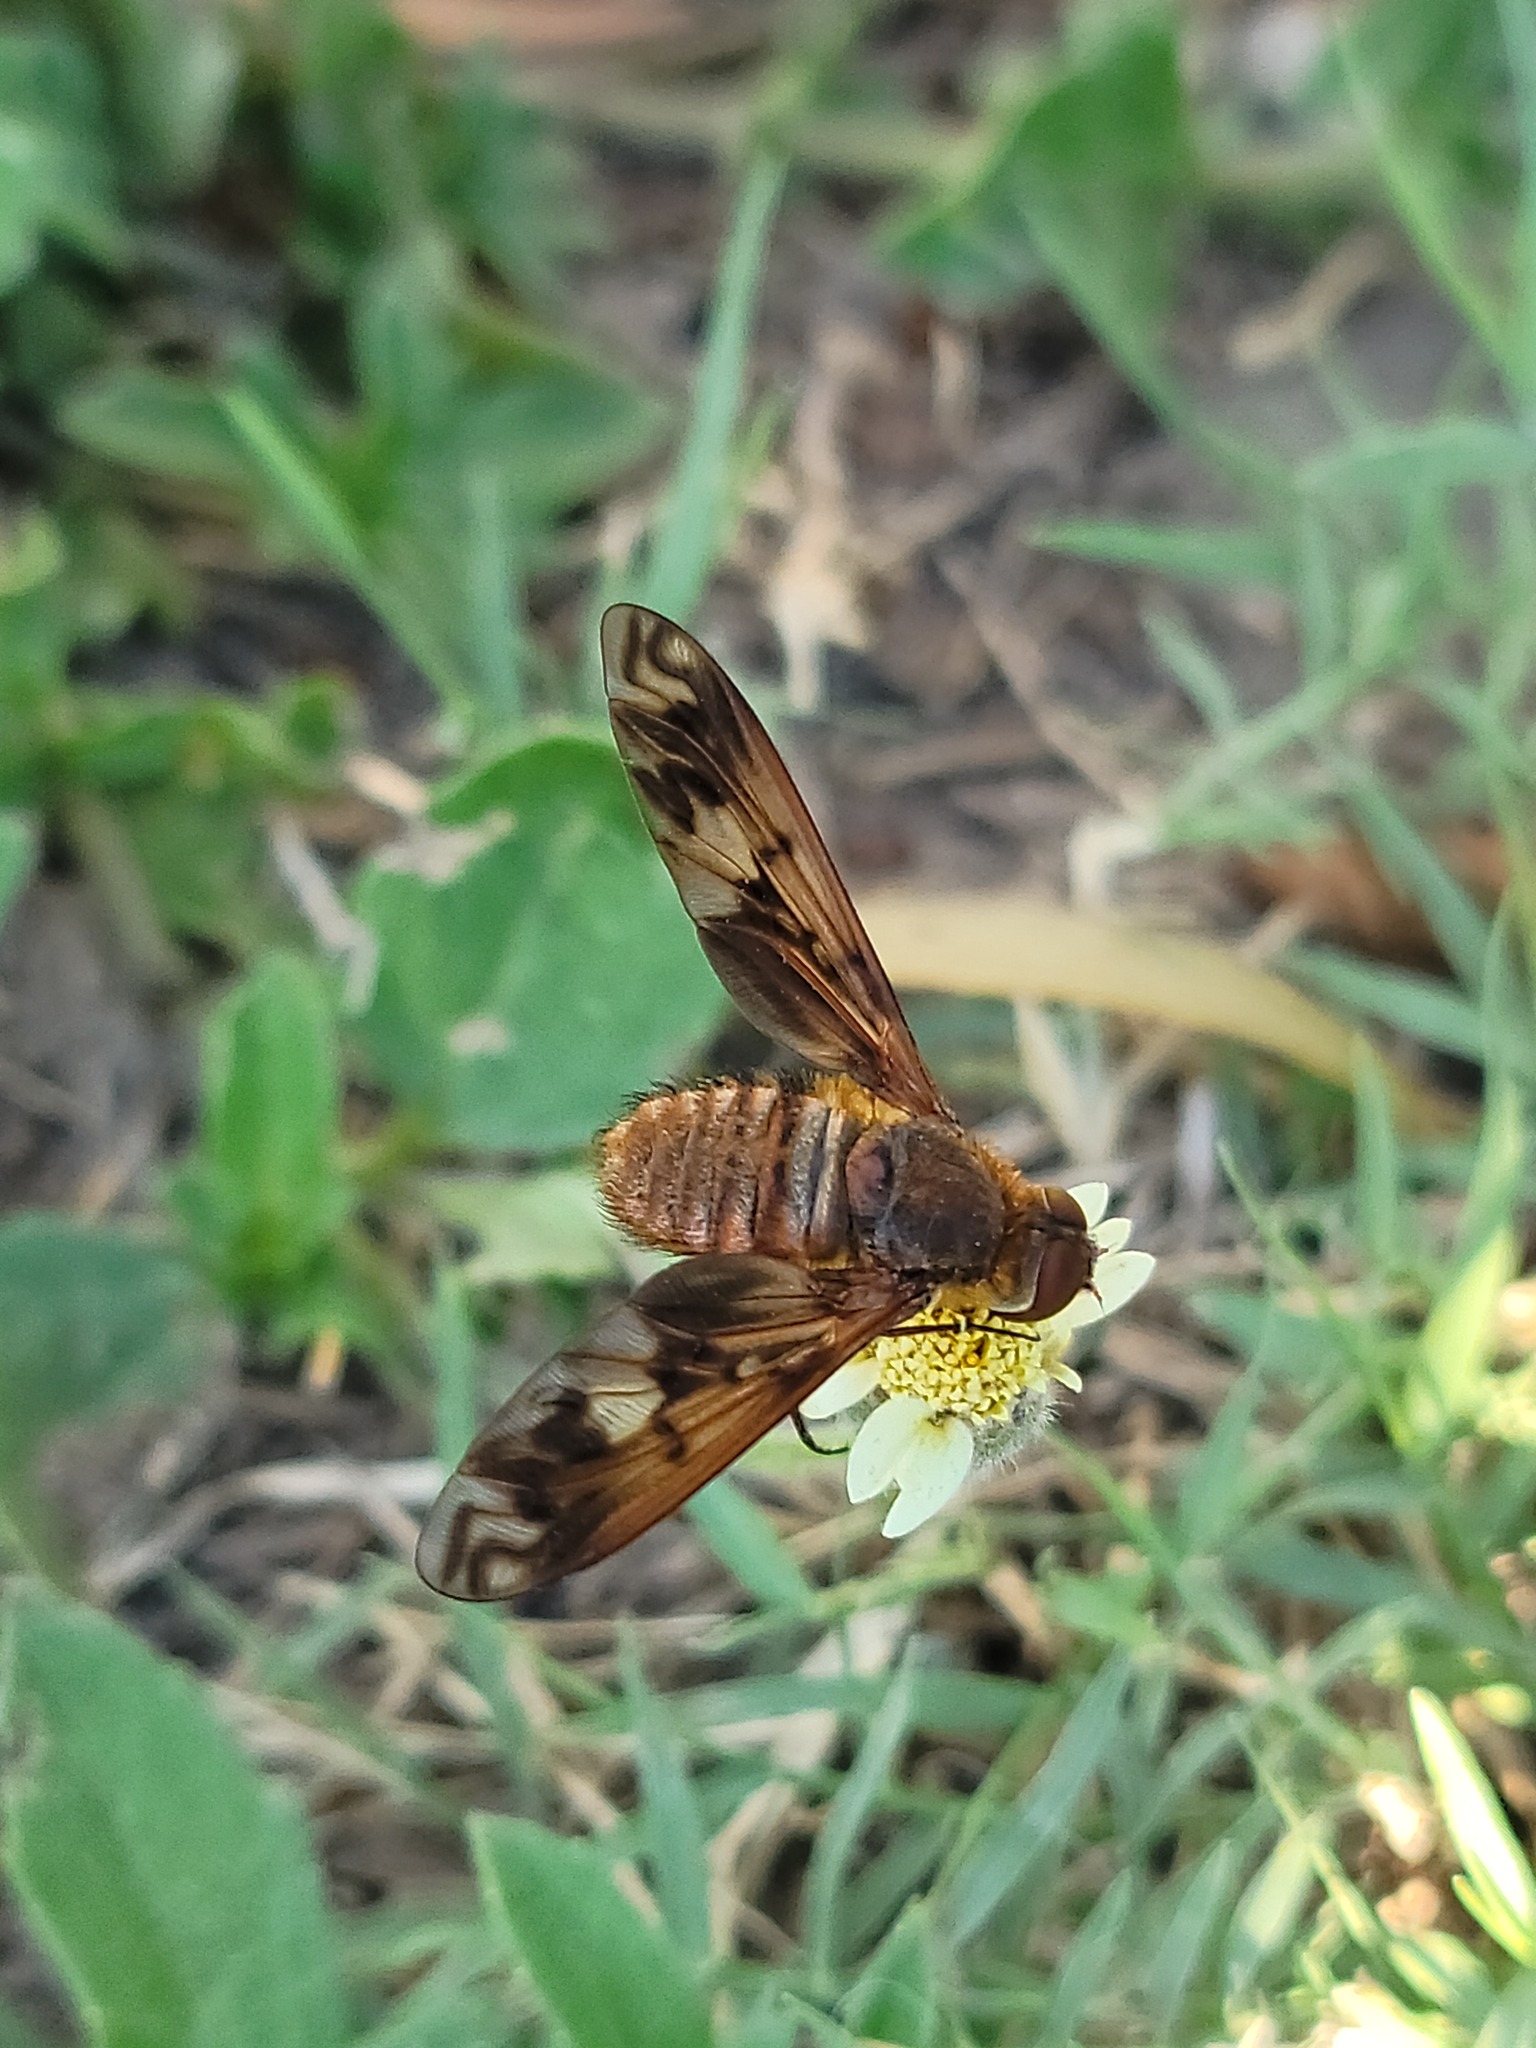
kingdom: Animalia
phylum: Arthropoda
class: Insecta
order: Diptera
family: Bombyliidae
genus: Poecilanthrax
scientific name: Poecilanthrax arethusa
